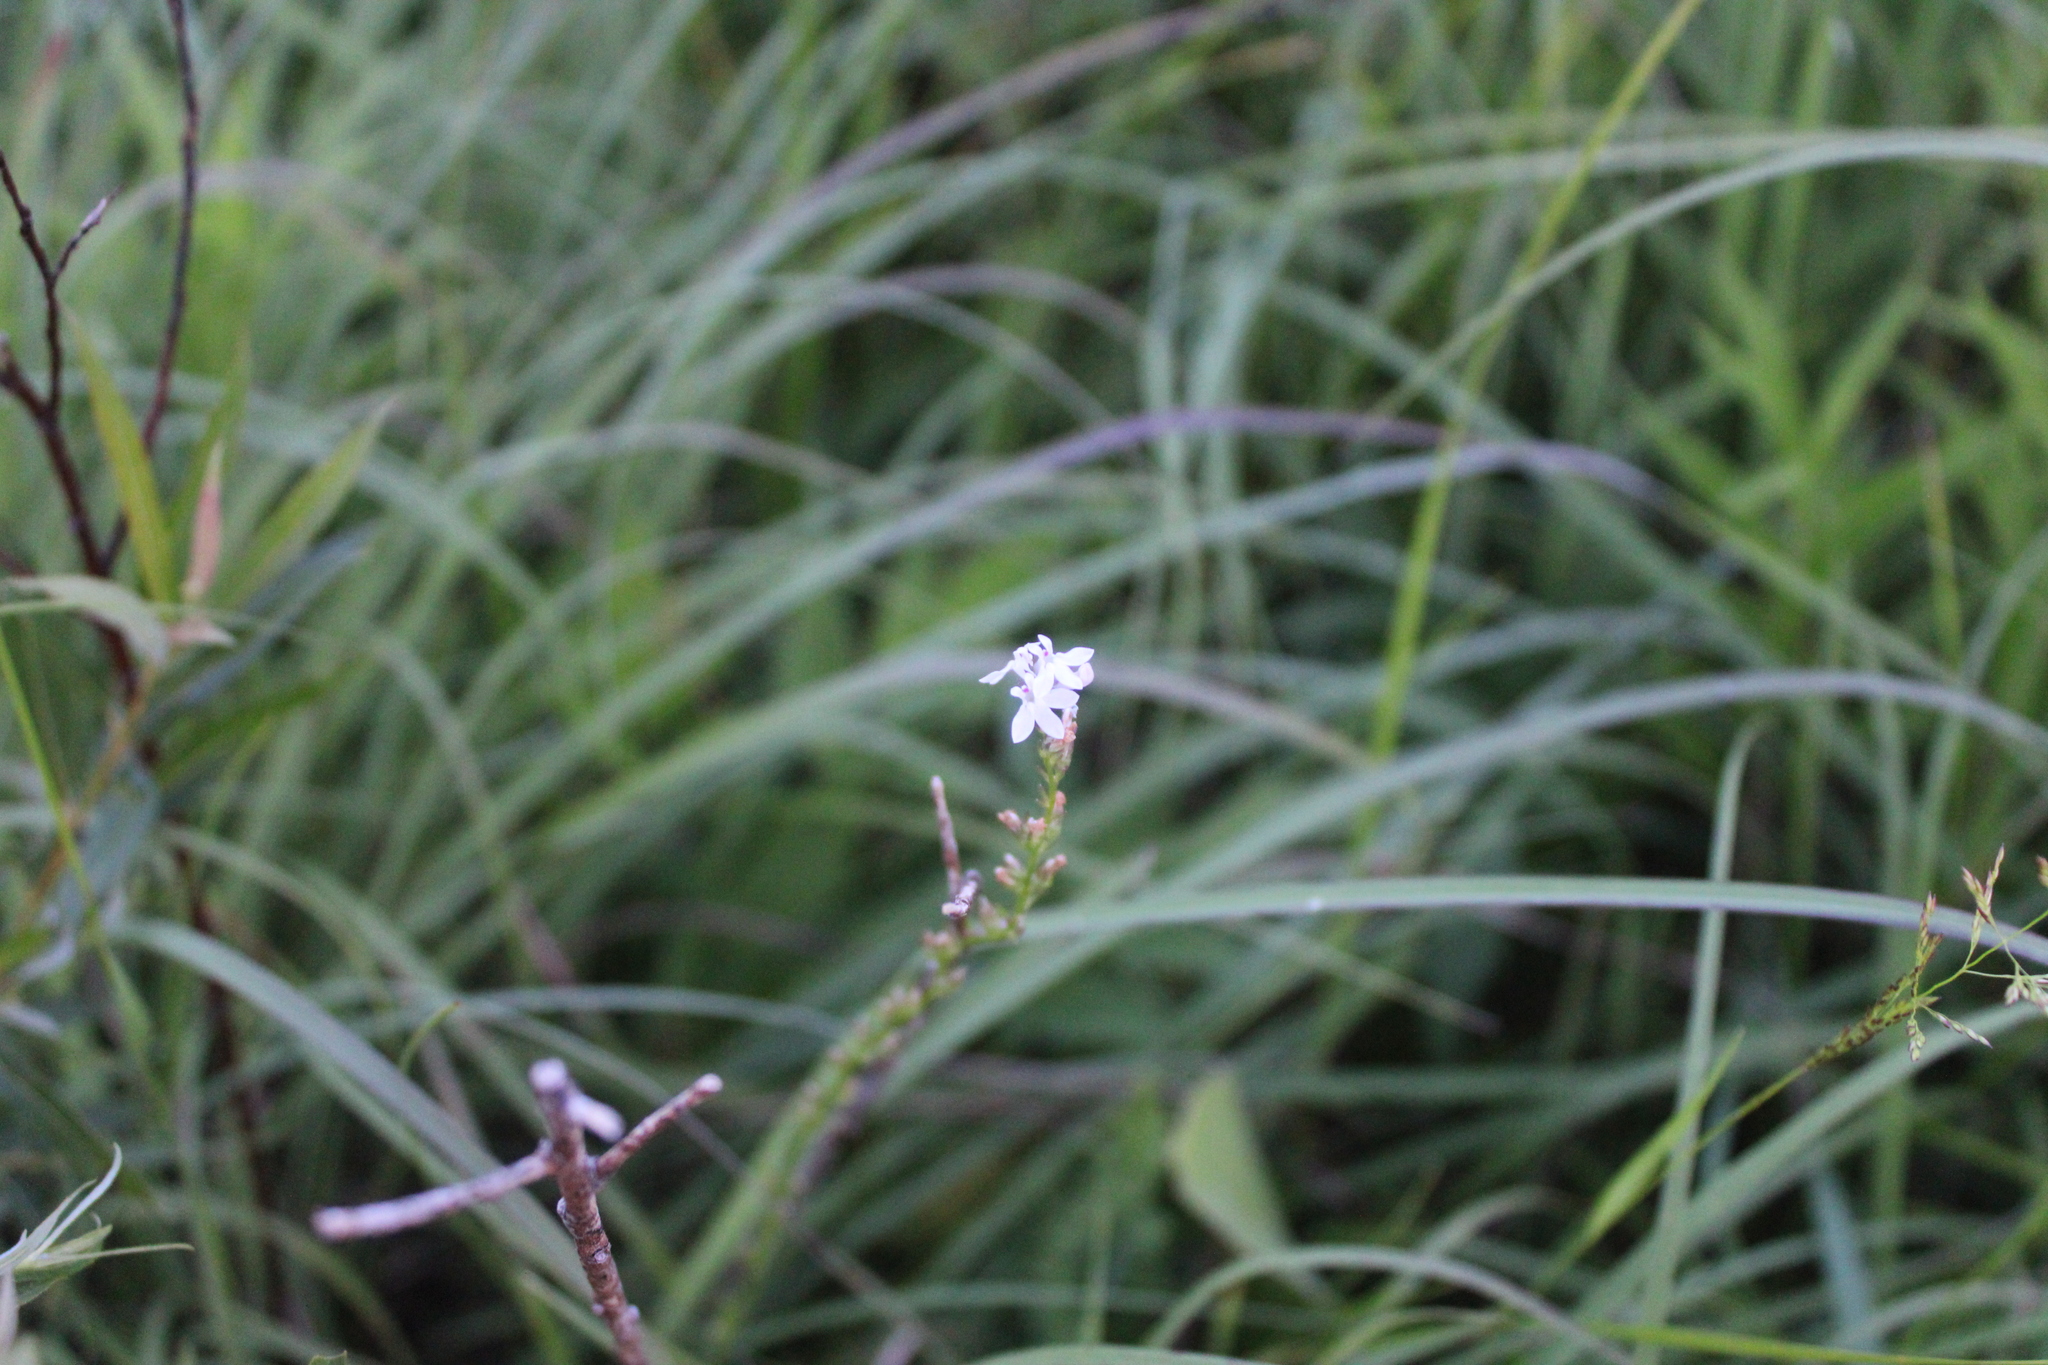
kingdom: Plantae
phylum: Tracheophyta
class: Magnoliopsida
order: Asterales
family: Campanulaceae
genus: Lobelia
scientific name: Lobelia spicata
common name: Pale-spike lobelia
